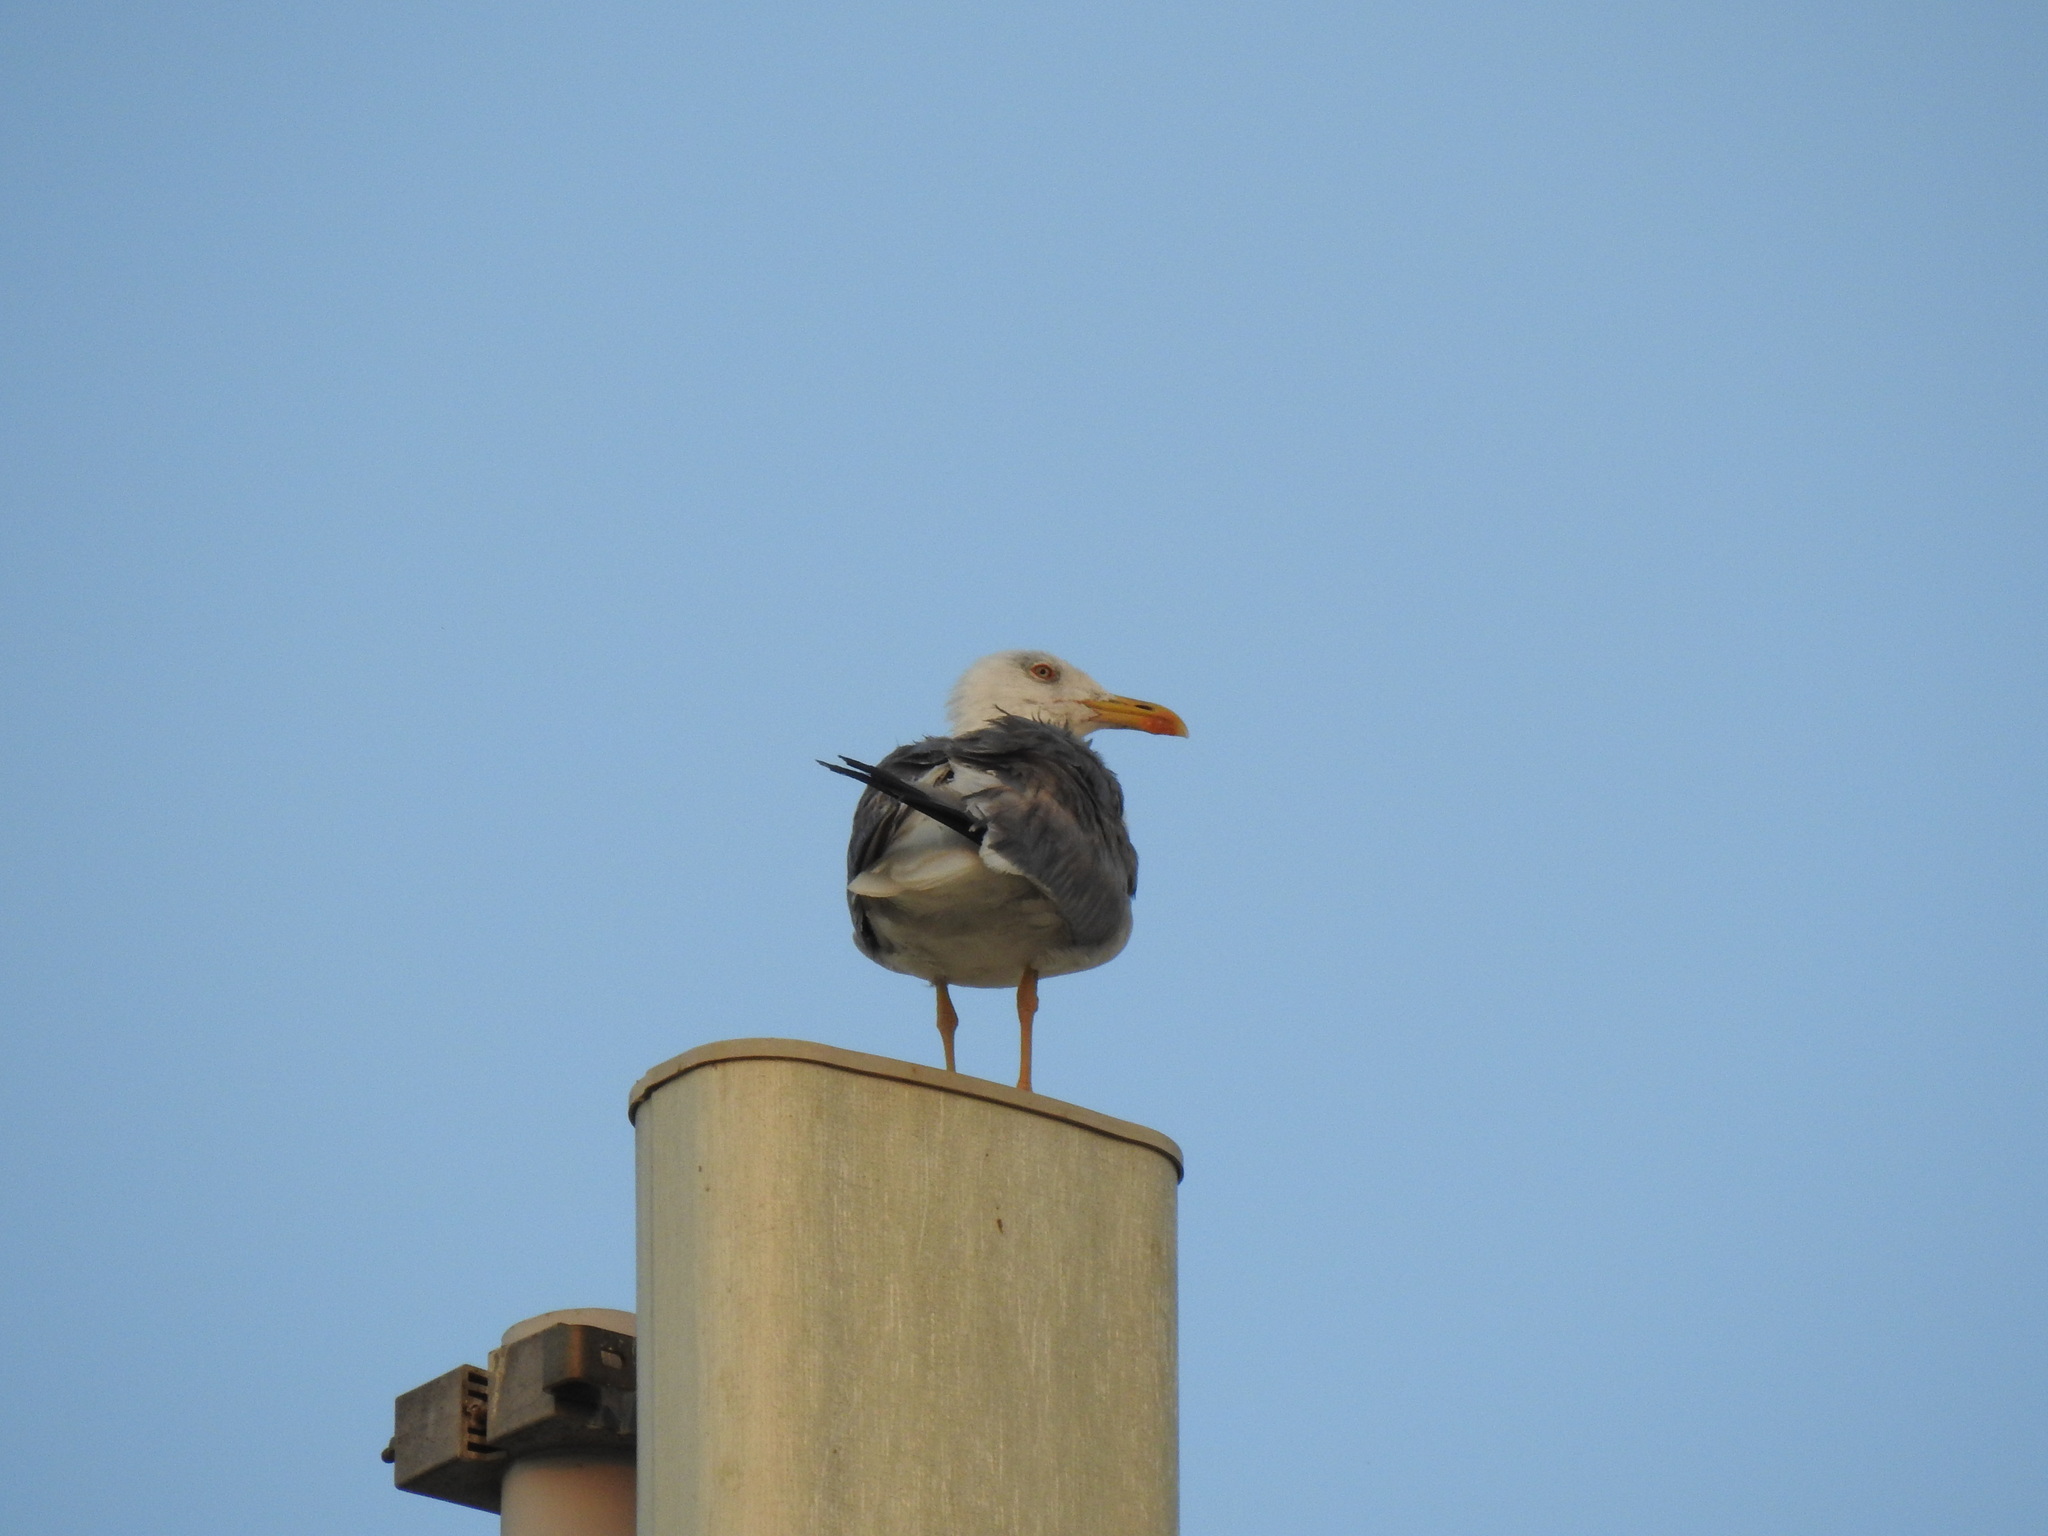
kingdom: Animalia
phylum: Chordata
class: Aves
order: Charadriiformes
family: Laridae
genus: Larus
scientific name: Larus michahellis
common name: Yellow-legged gull
